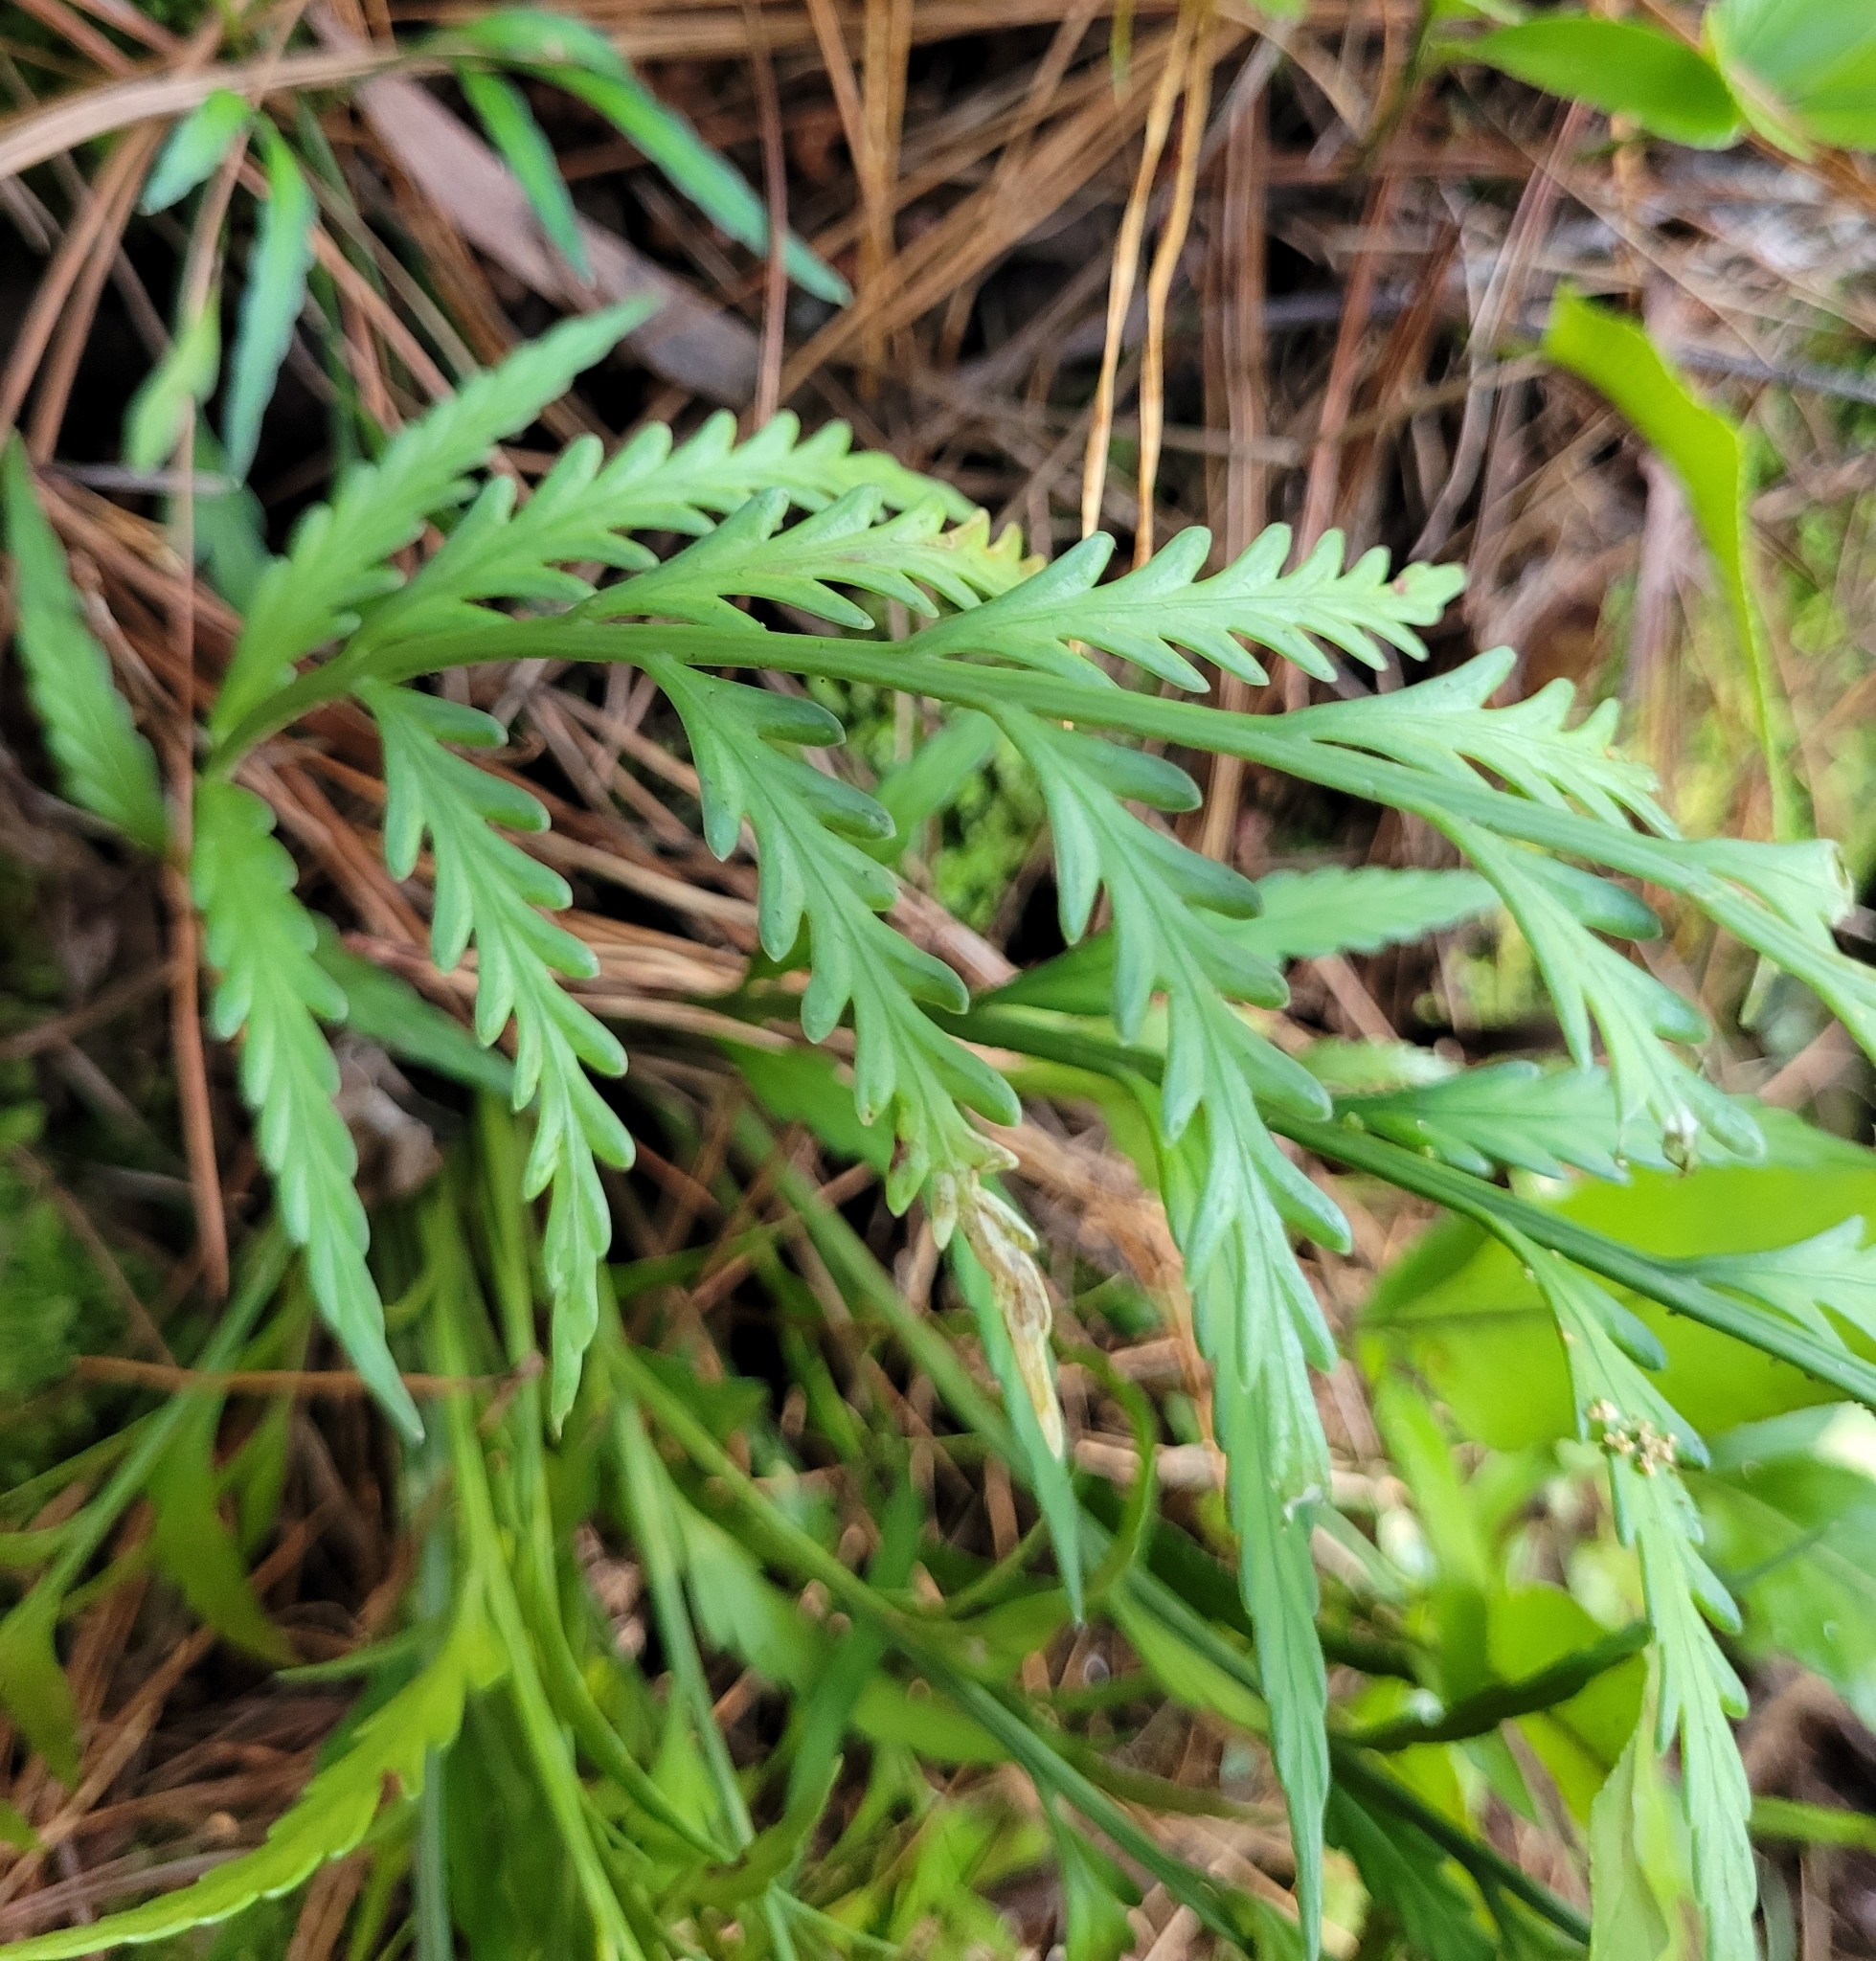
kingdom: Plantae
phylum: Tracheophyta
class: Polypodiopsida
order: Polypodiales
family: Aspleniaceae
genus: Asplenium
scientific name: Asplenium flaccidum
